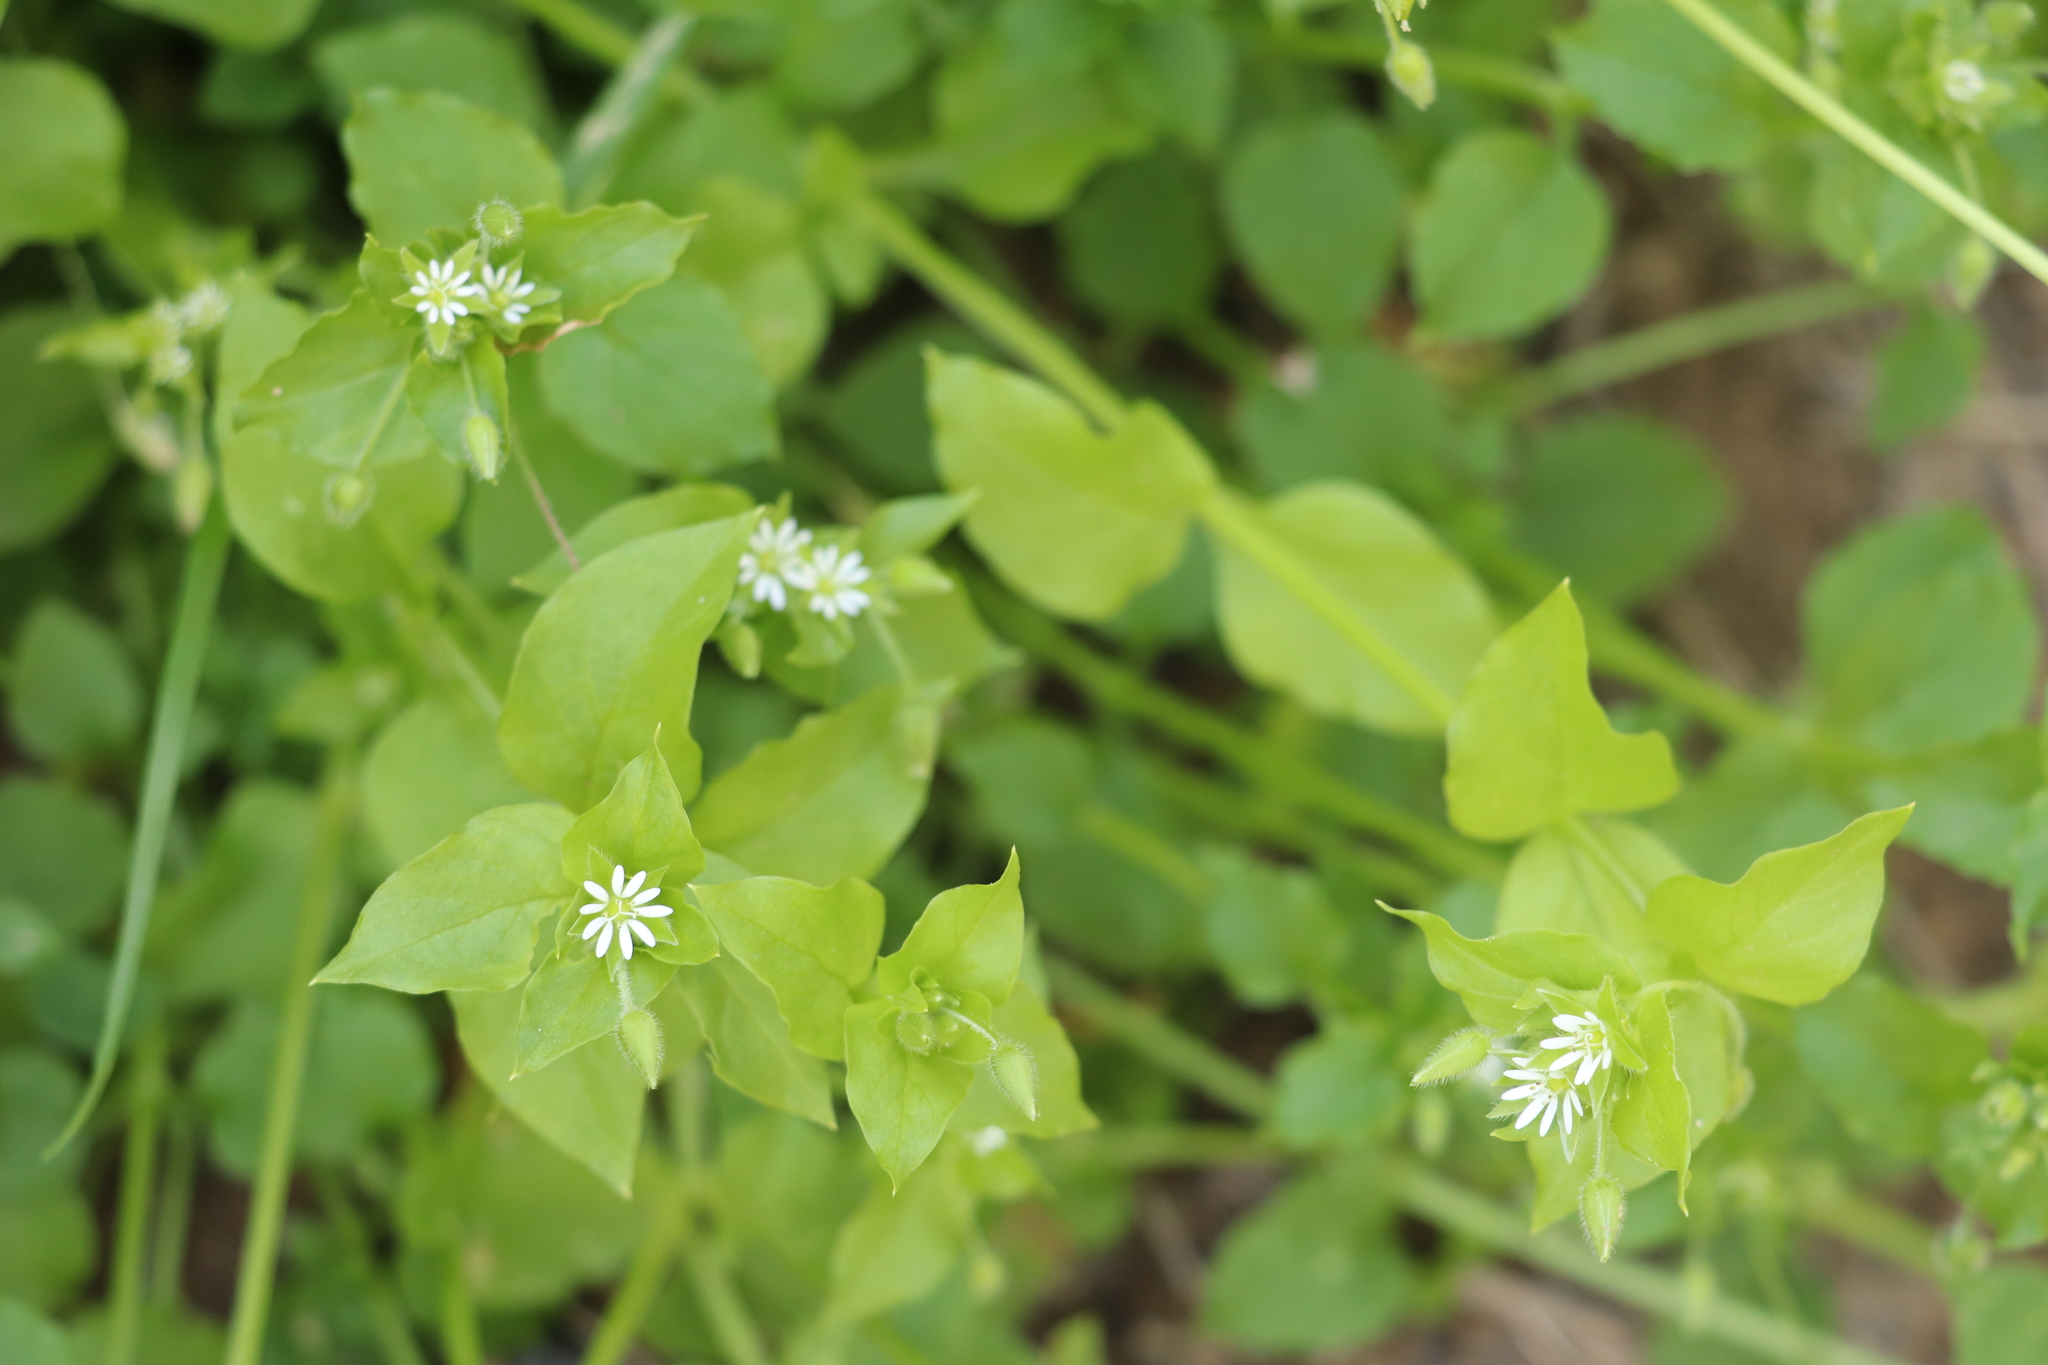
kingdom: Plantae
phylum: Tracheophyta
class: Magnoliopsida
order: Caryophyllales
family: Caryophyllaceae
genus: Stellaria
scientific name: Stellaria media
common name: Common chickweed
